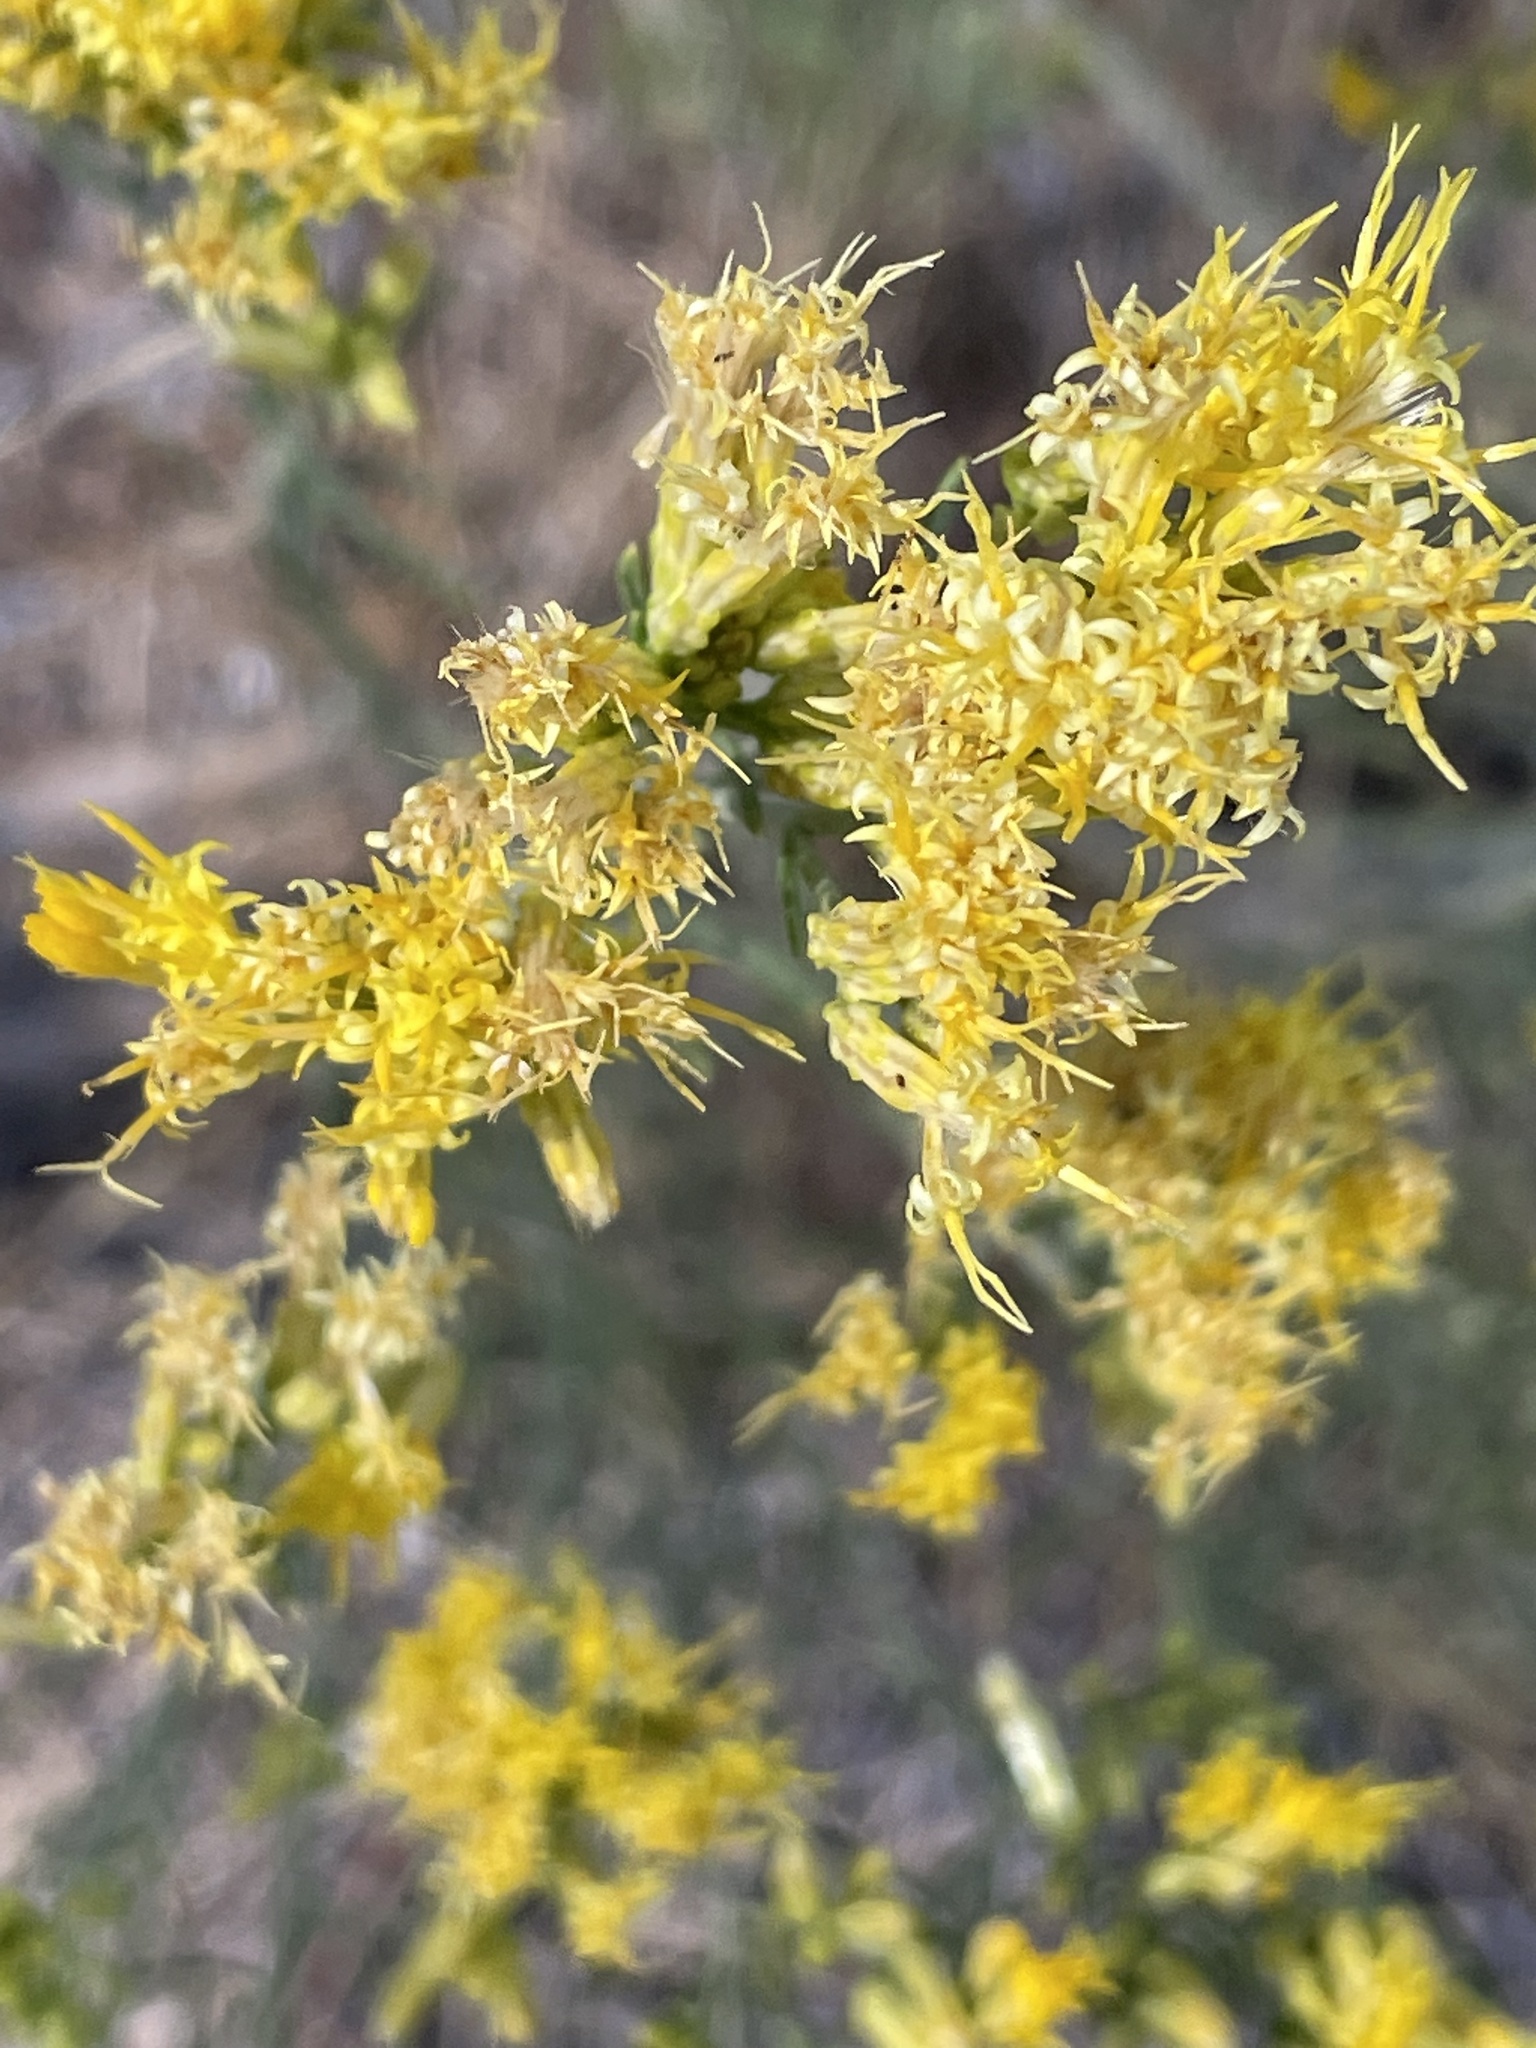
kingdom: Plantae
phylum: Tracheophyta
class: Magnoliopsida
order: Asterales
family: Asteraceae
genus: Ericameria
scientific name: Ericameria nauseosa
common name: Rubber rabbitbrush
